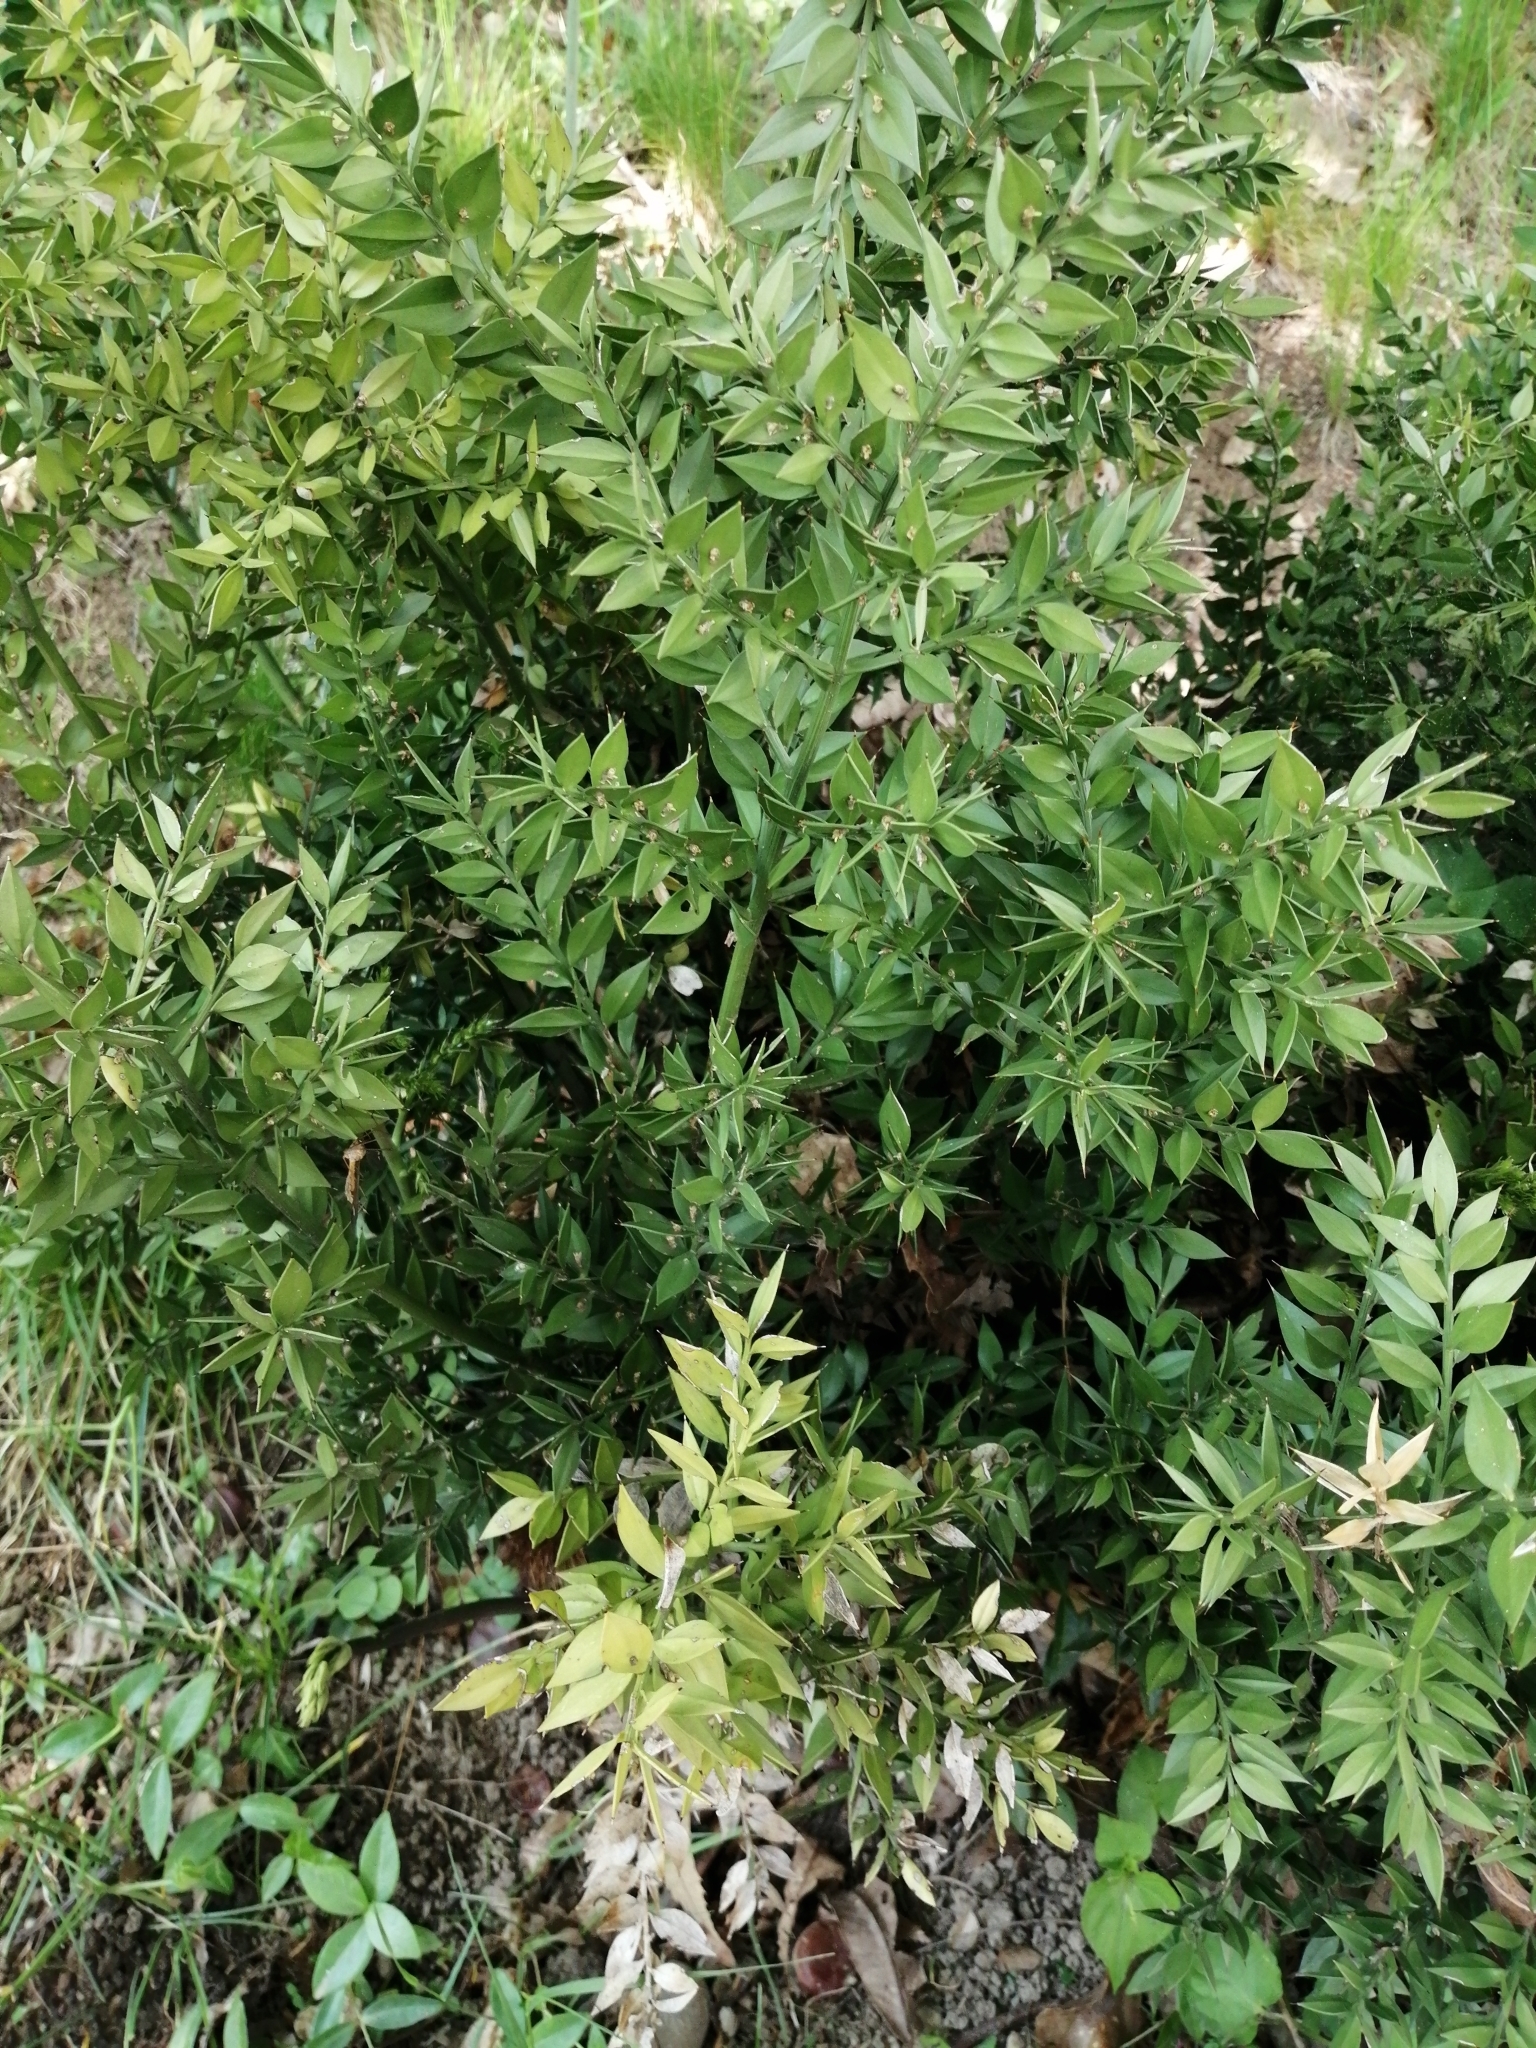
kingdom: Plantae
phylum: Tracheophyta
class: Liliopsida
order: Asparagales
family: Asparagaceae
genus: Ruscus
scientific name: Ruscus aculeatus
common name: Butcher's-broom
